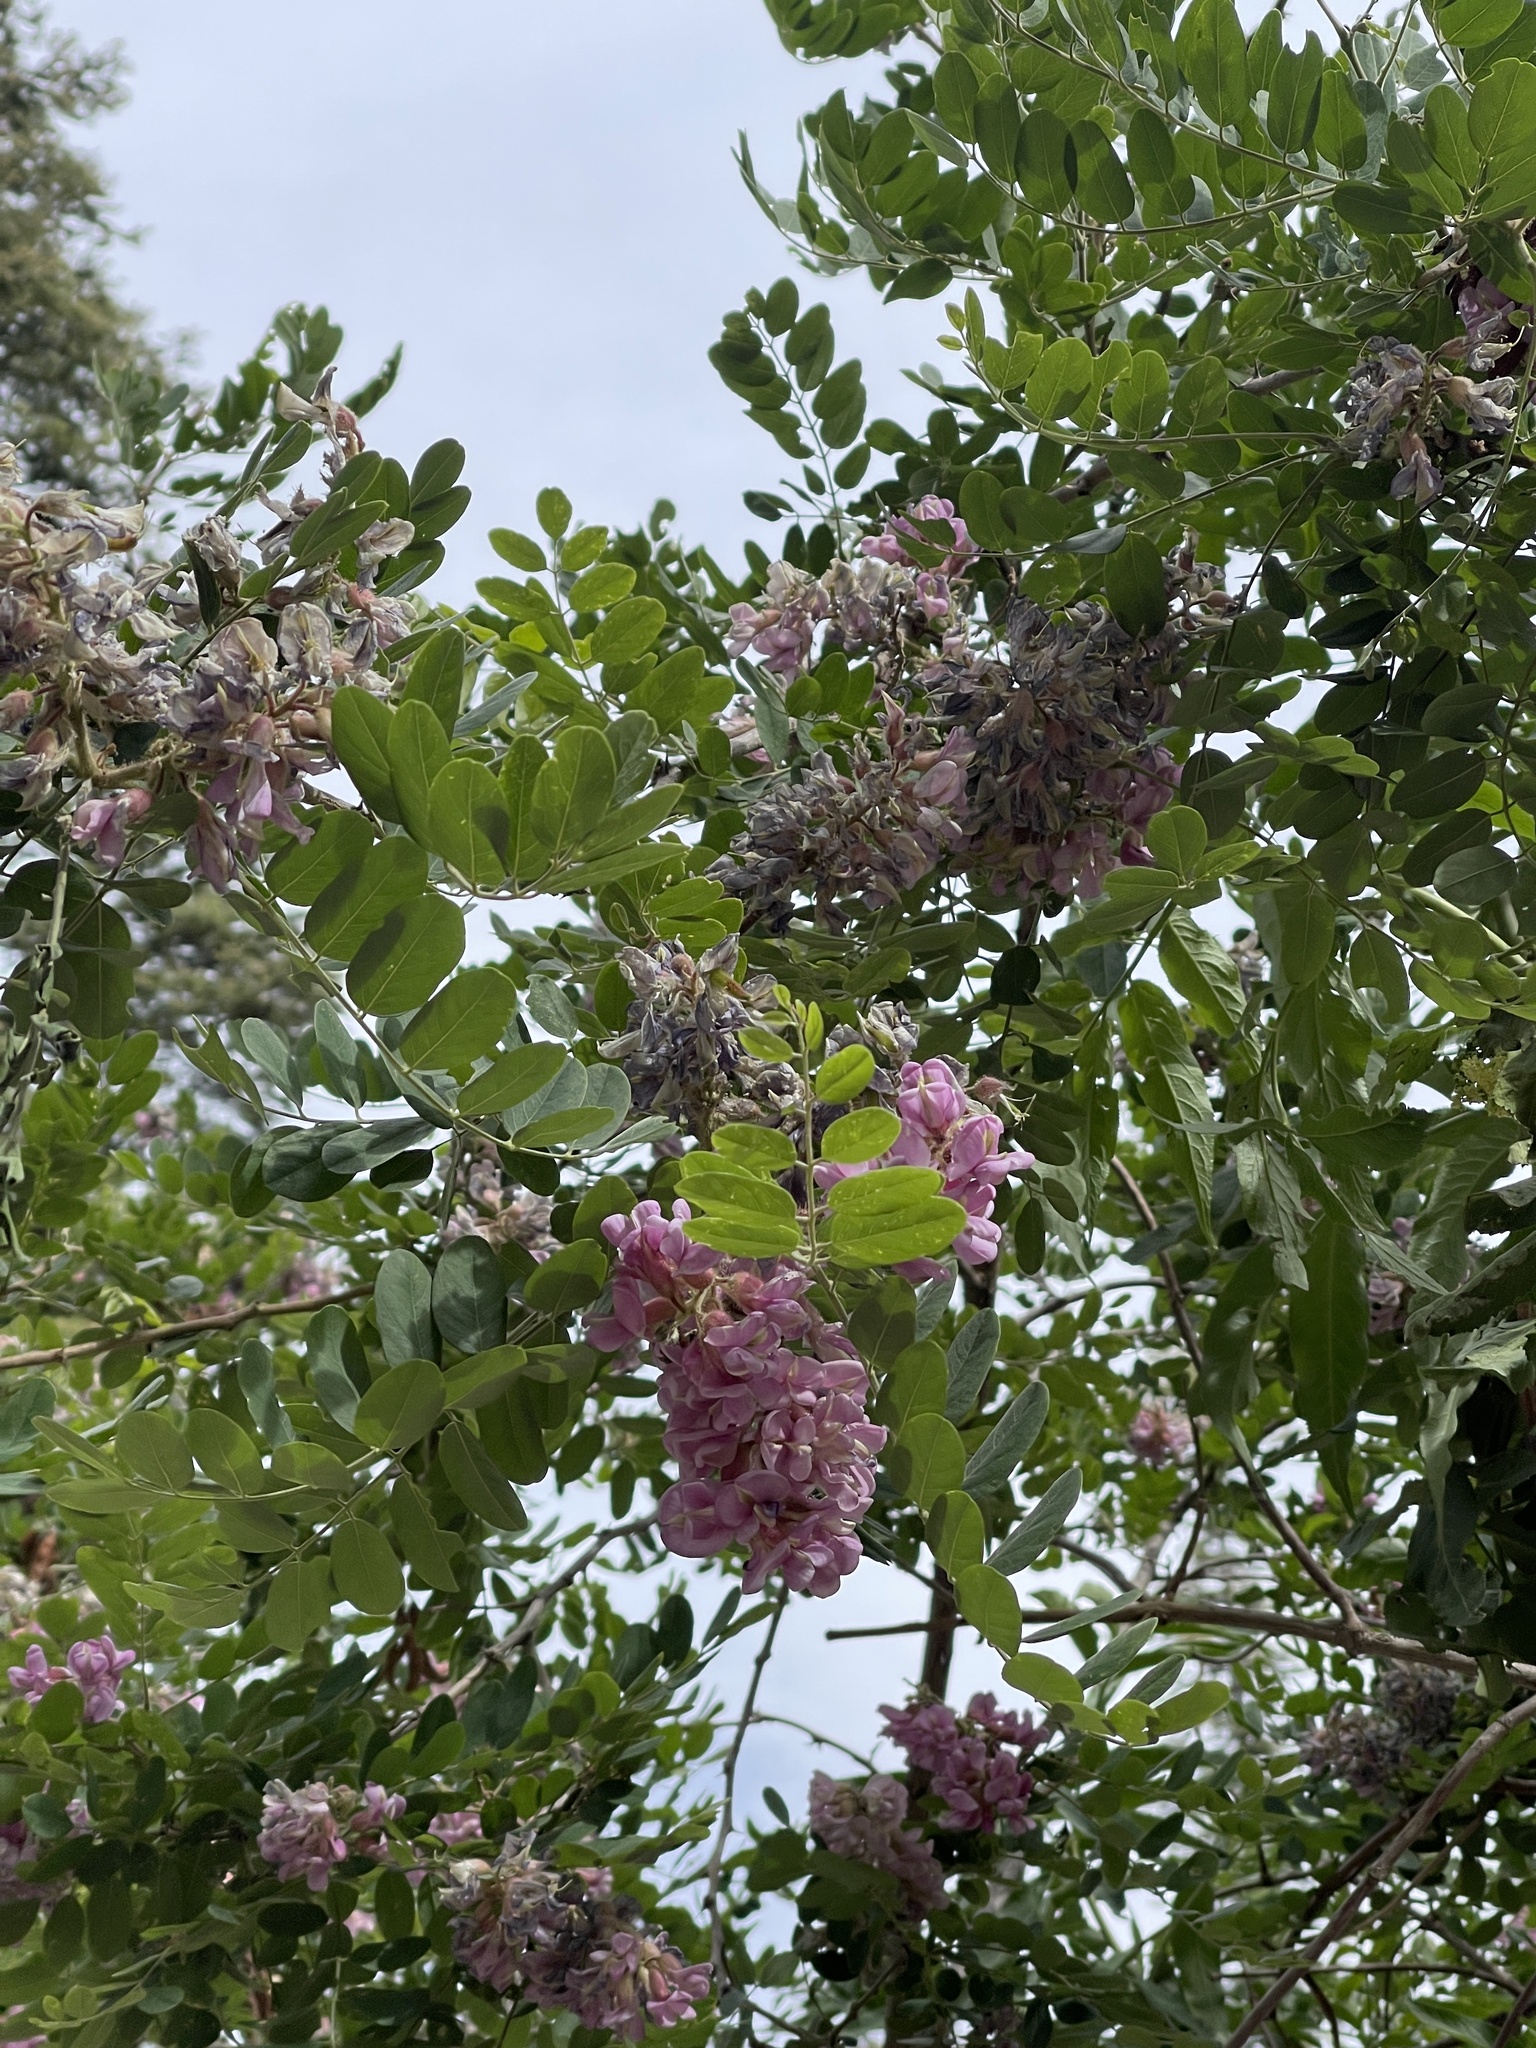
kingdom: Plantae
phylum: Tracheophyta
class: Magnoliopsida
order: Fabales
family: Fabaceae
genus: Robinia
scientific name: Robinia neomexicana
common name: New mexico locust
